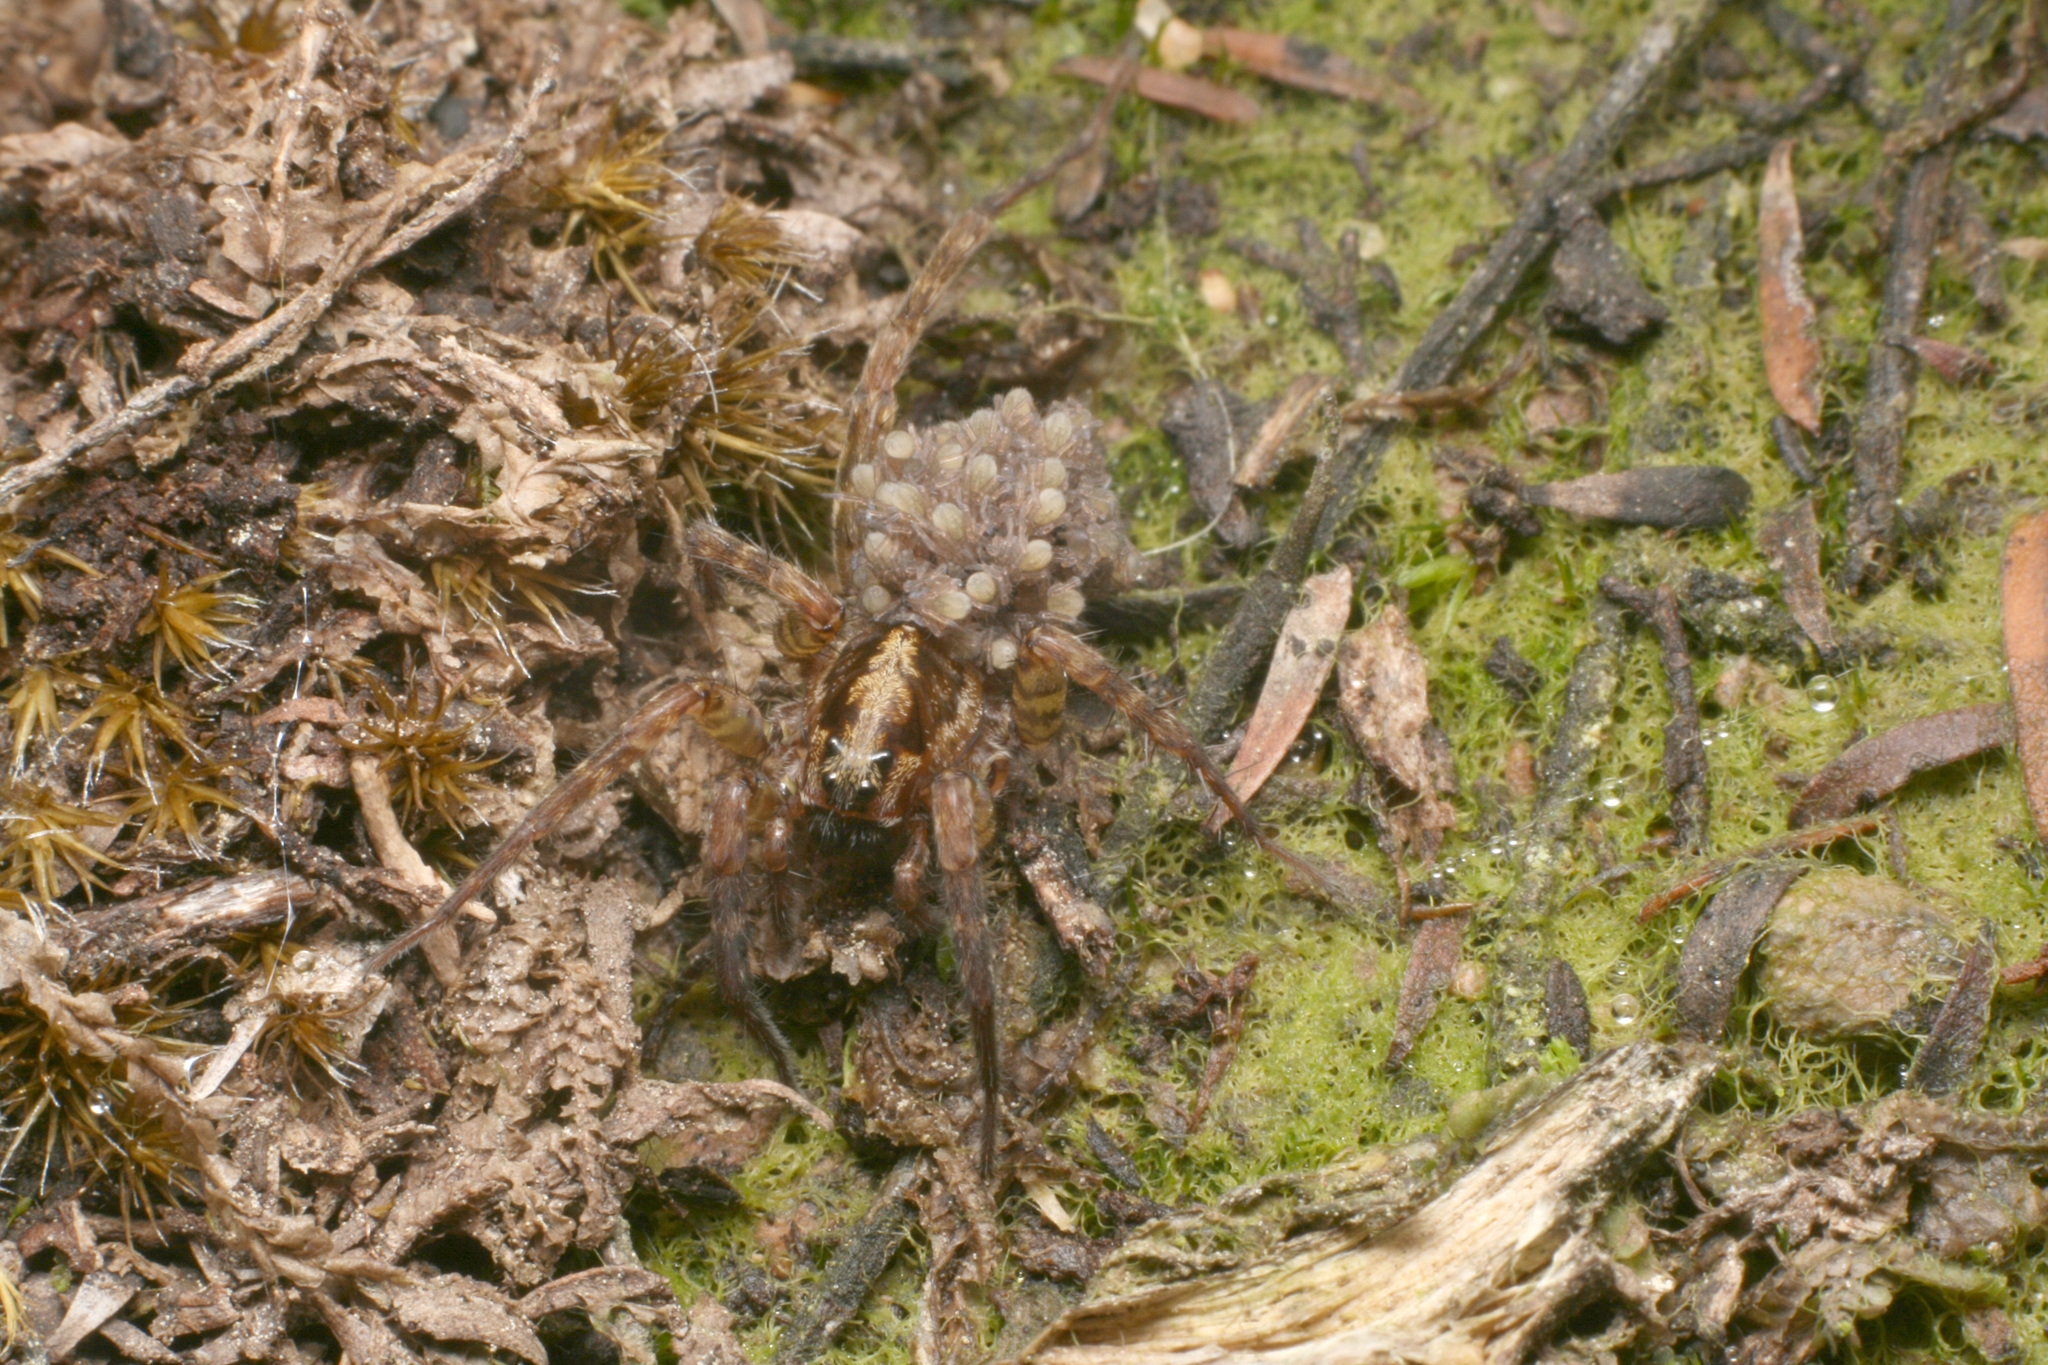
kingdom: Animalia
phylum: Arthropoda
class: Arachnida
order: Araneae
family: Lycosidae
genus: Anoteropsis
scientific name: Anoteropsis hilaris
